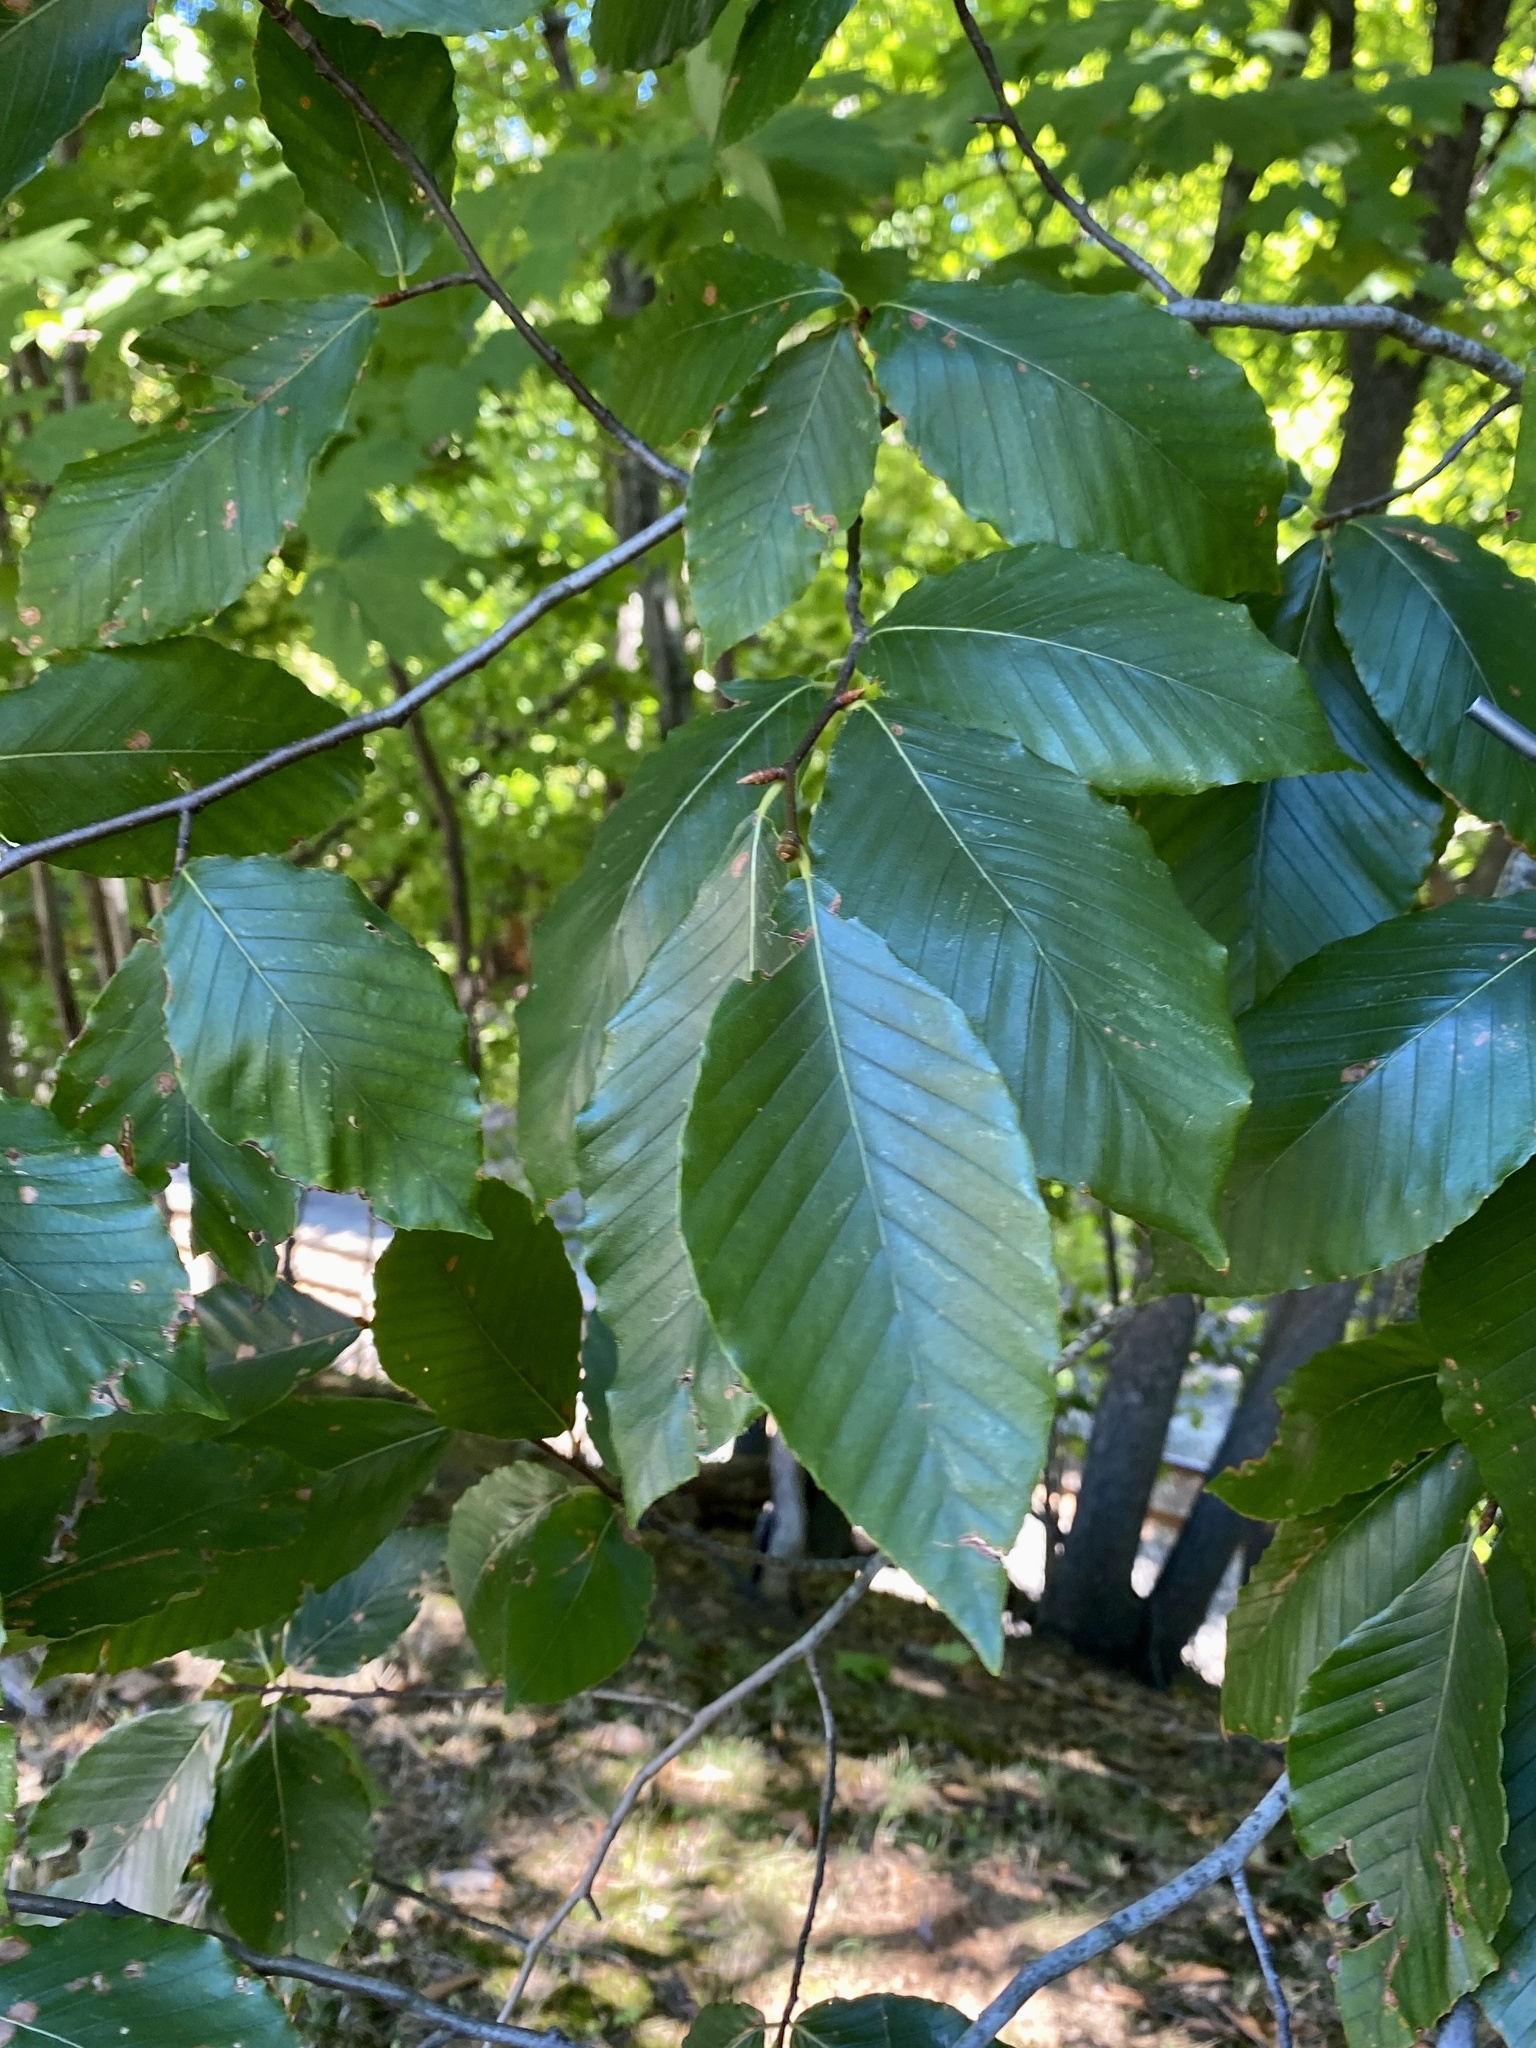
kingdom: Plantae
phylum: Tracheophyta
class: Magnoliopsida
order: Fagales
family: Fagaceae
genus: Fagus
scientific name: Fagus grandifolia
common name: American beech
